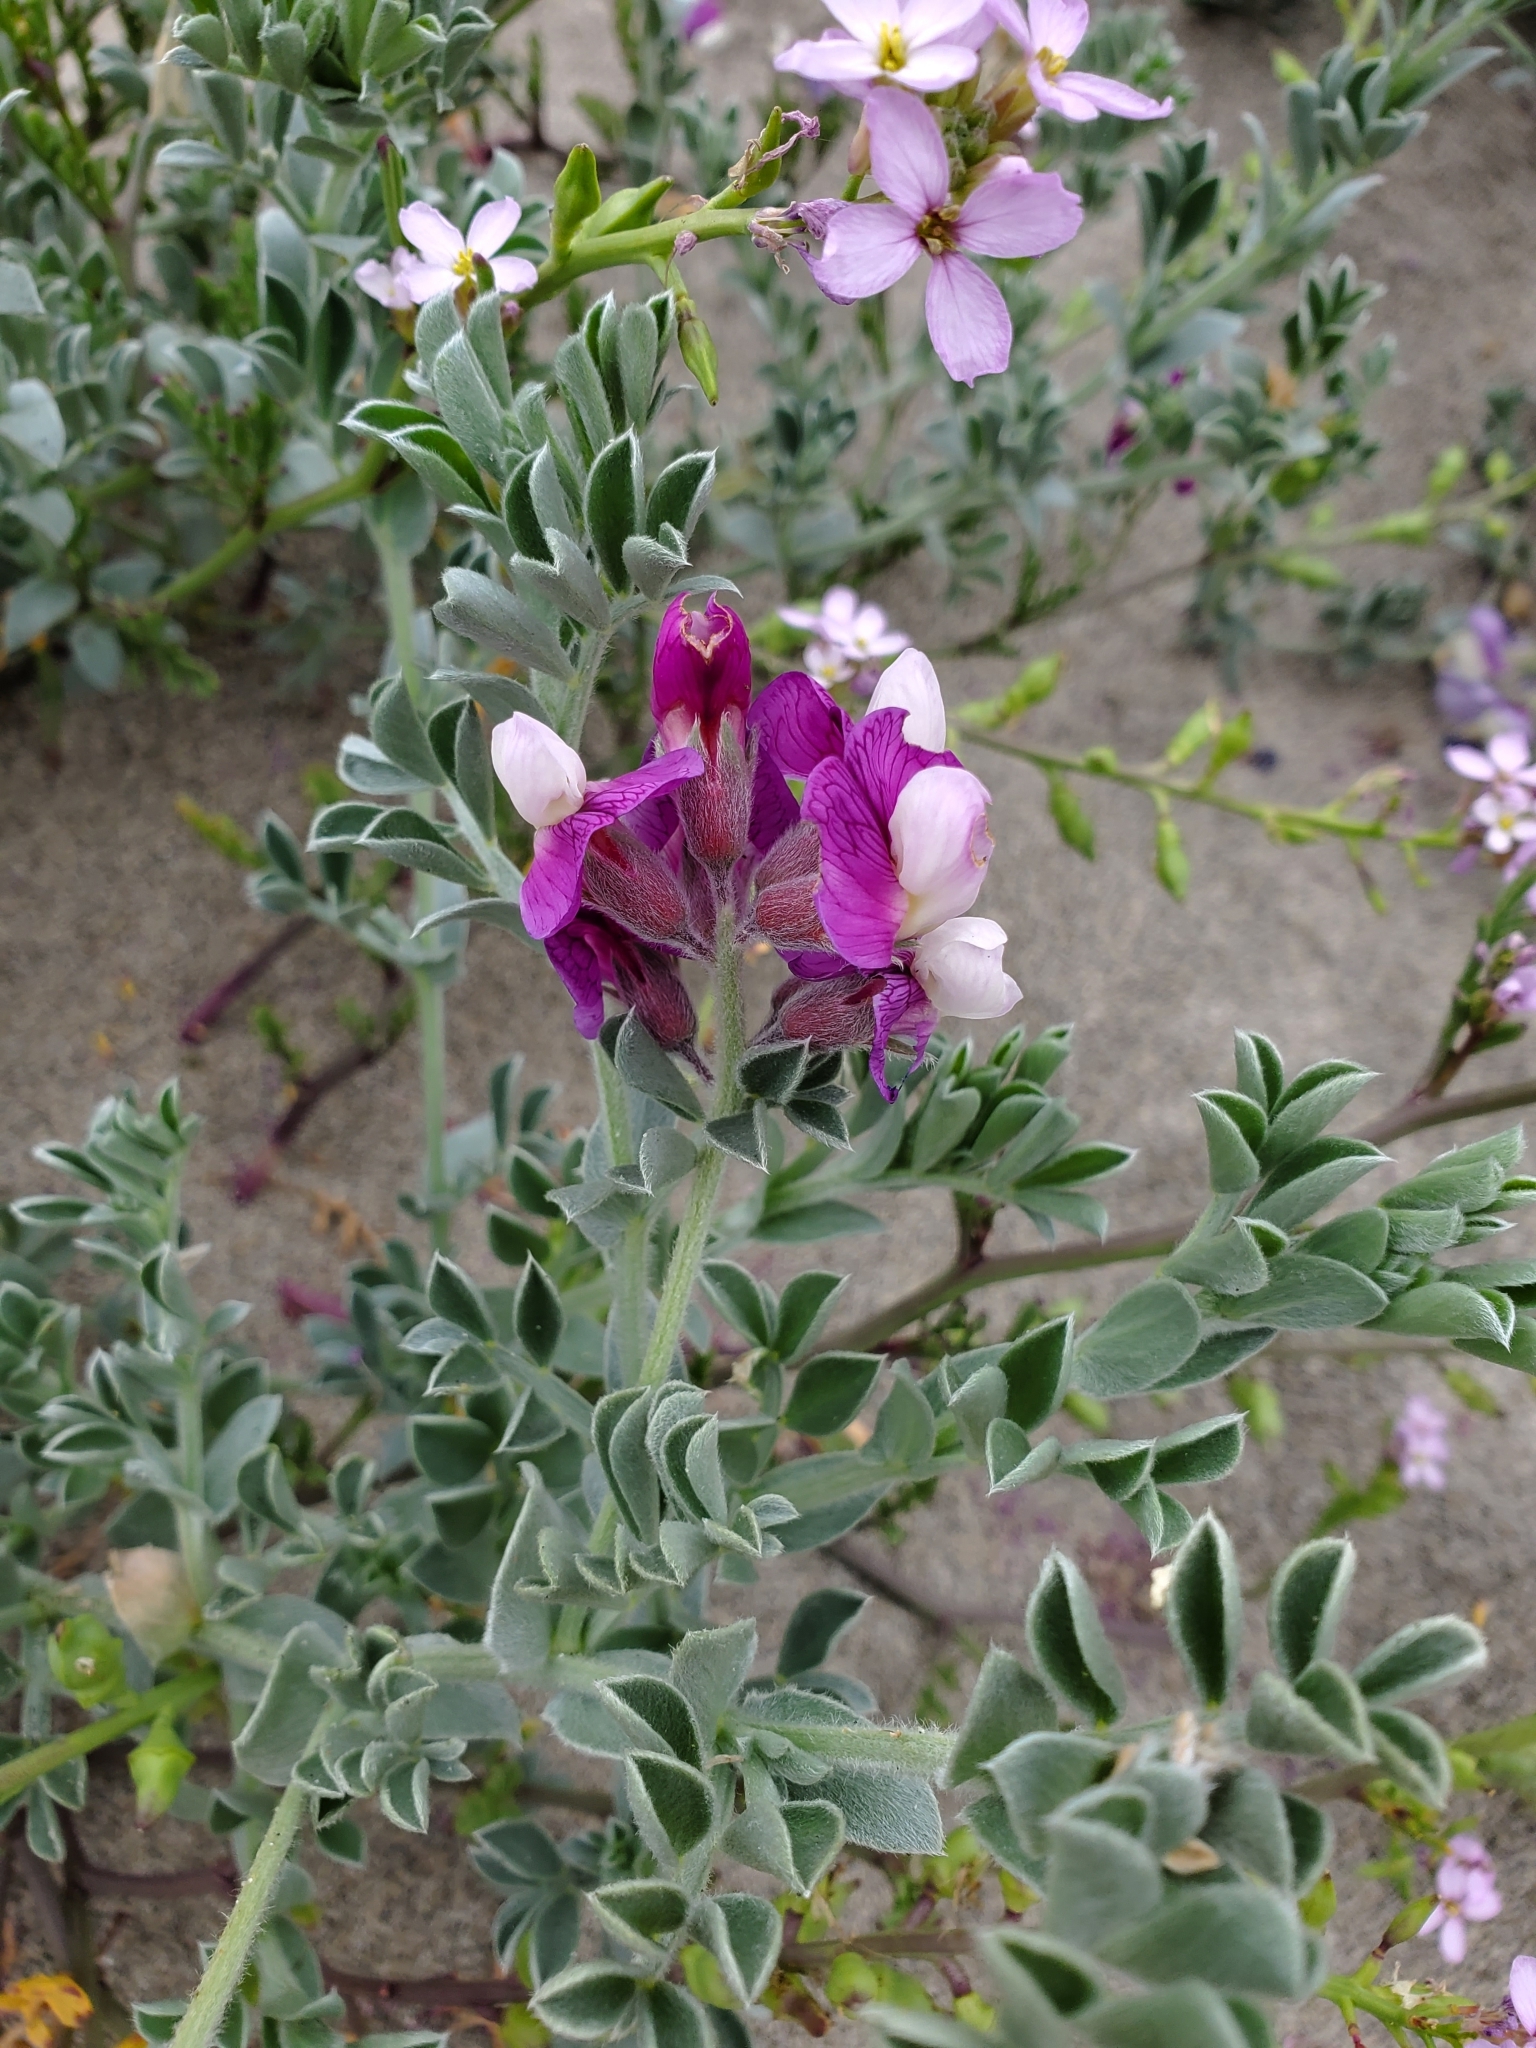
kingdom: Plantae
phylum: Tracheophyta
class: Magnoliopsida
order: Fabales
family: Fabaceae
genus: Lathyrus
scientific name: Lathyrus littoralis
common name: Dune sweet pea
